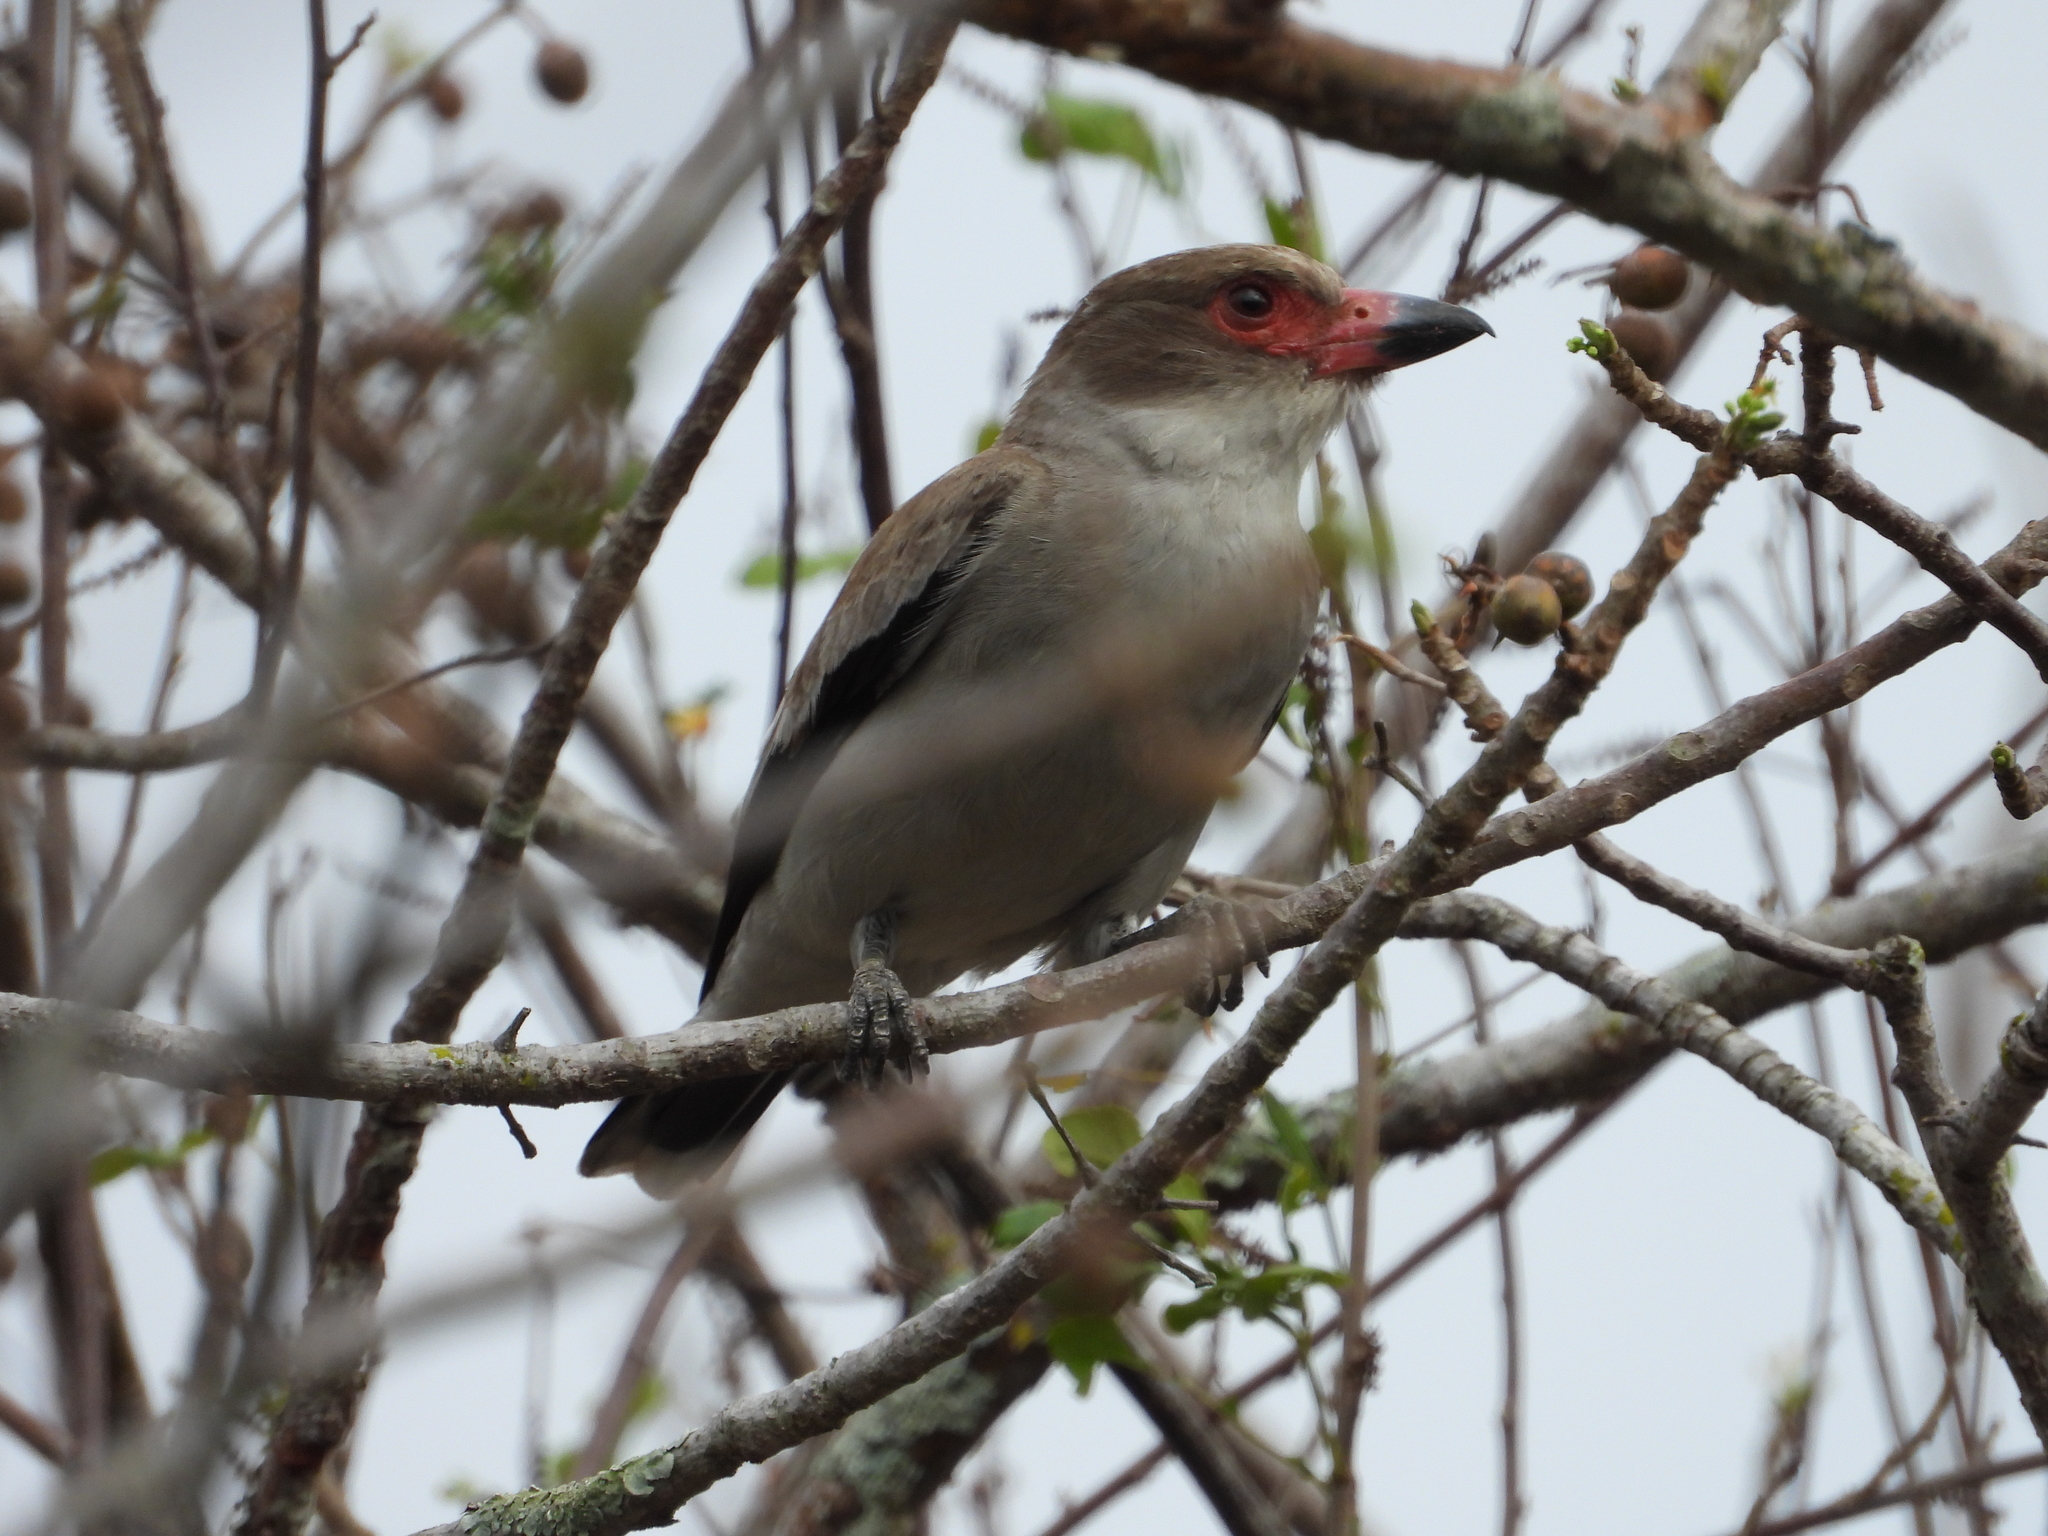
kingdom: Animalia
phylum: Chordata
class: Aves
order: Passeriformes
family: Cotingidae
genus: Tityra
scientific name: Tityra semifasciata
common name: Masked tityra
